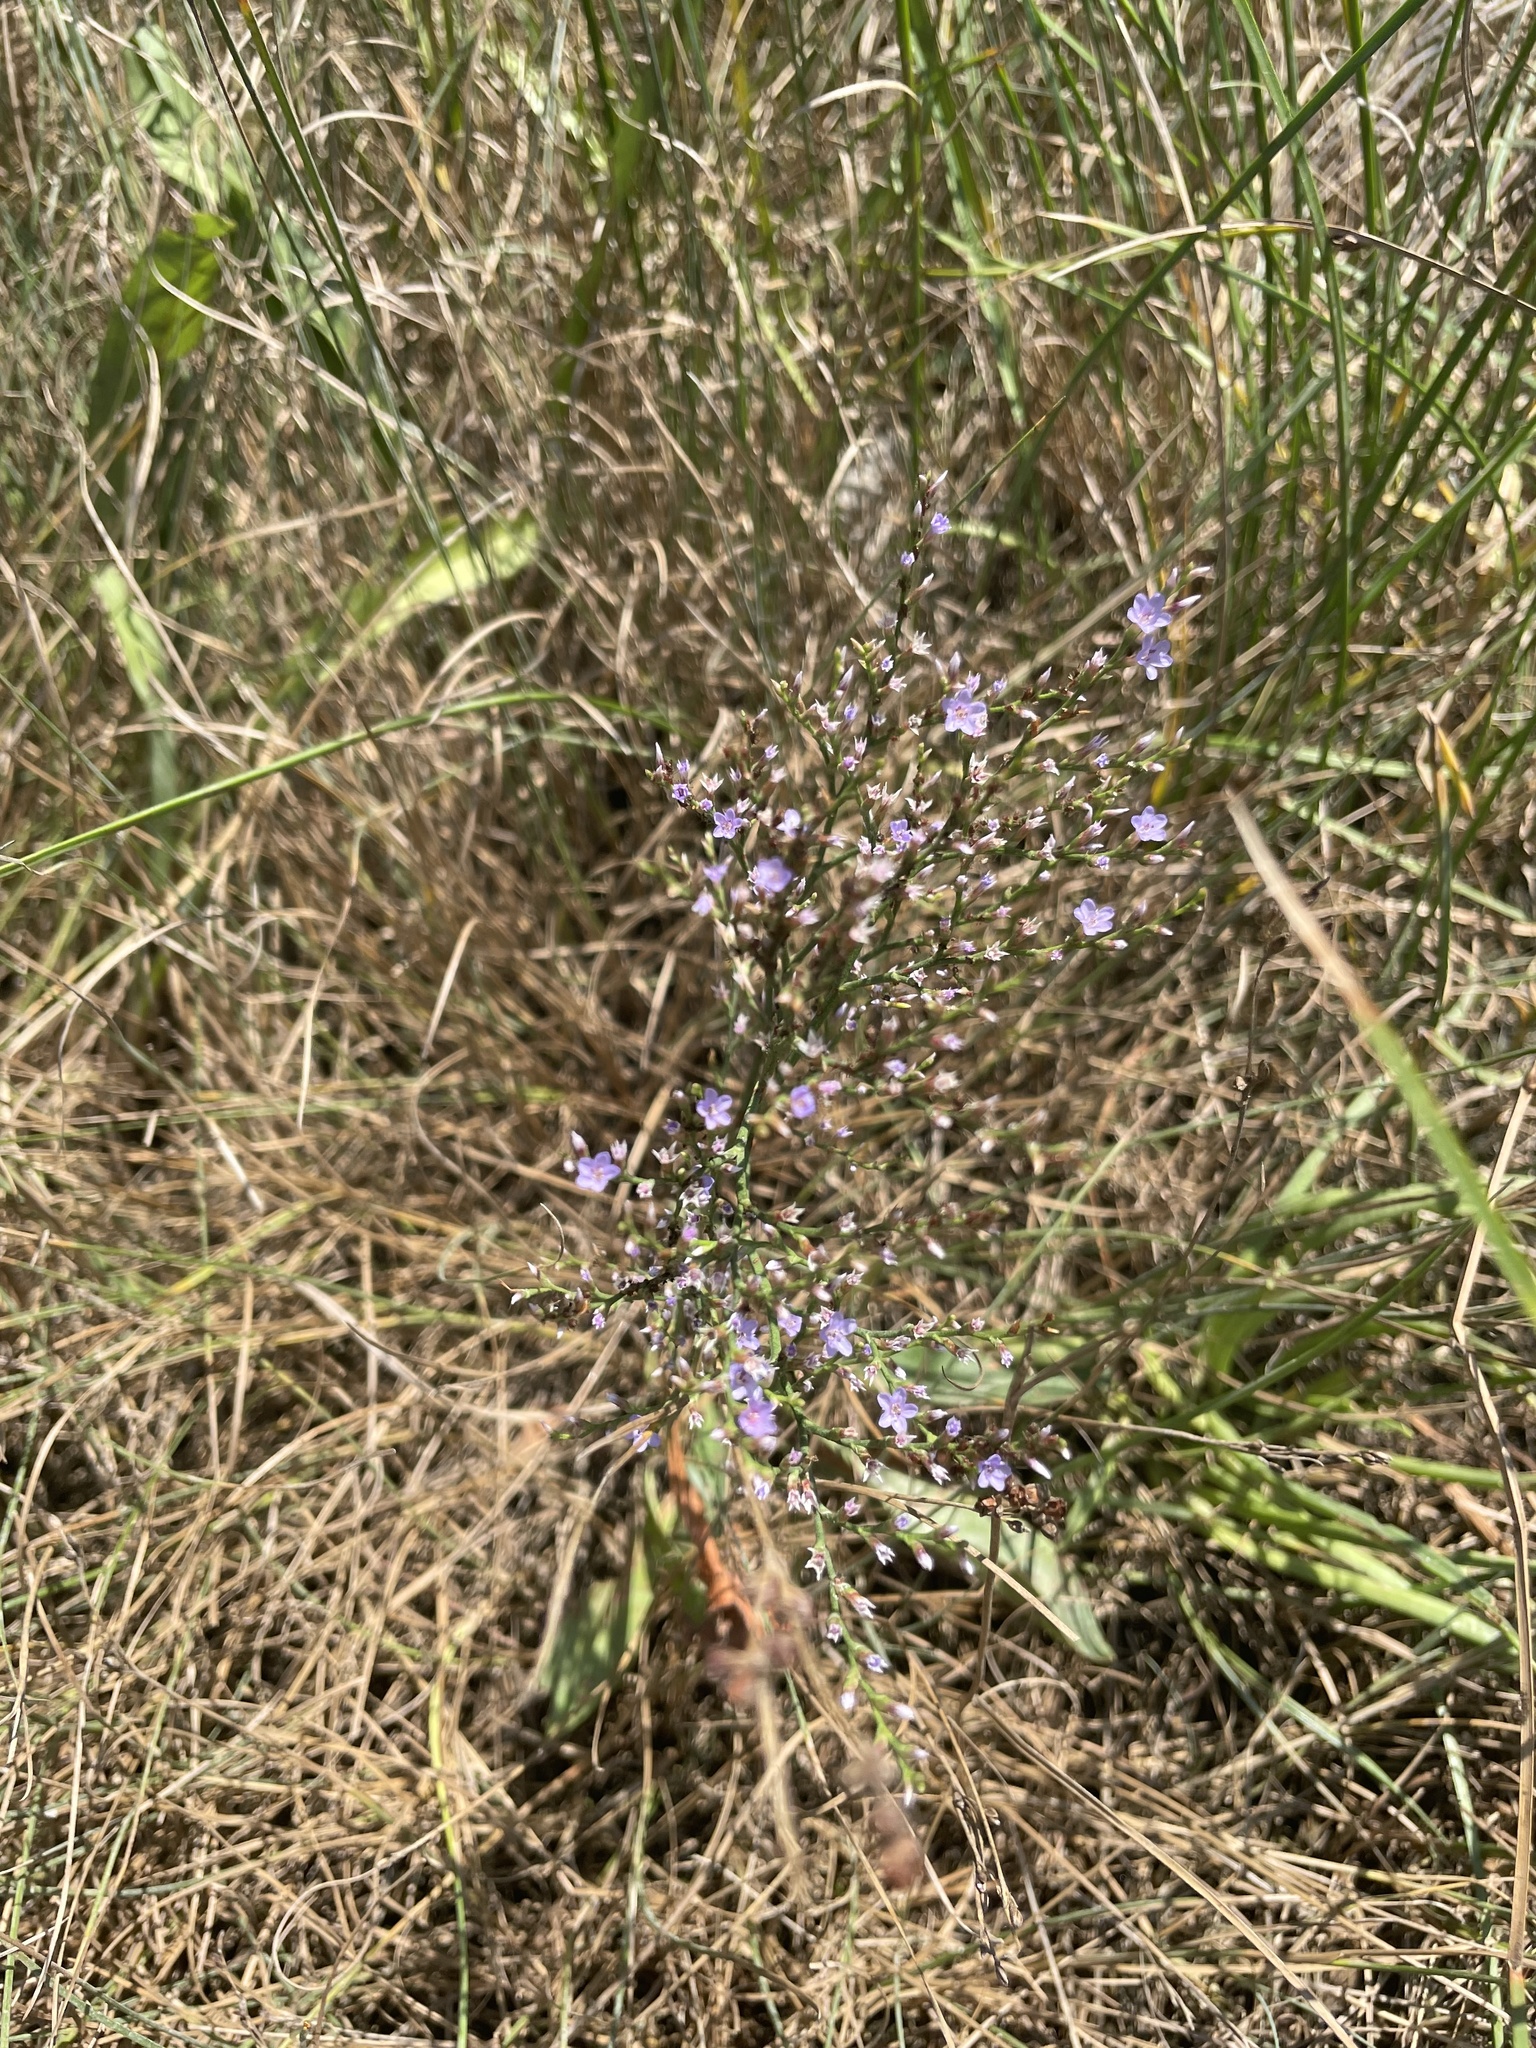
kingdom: Plantae
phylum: Tracheophyta
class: Magnoliopsida
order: Caryophyllales
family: Plumbaginaceae
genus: Limonium
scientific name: Limonium carolinianum
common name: Carolina sea lavender
